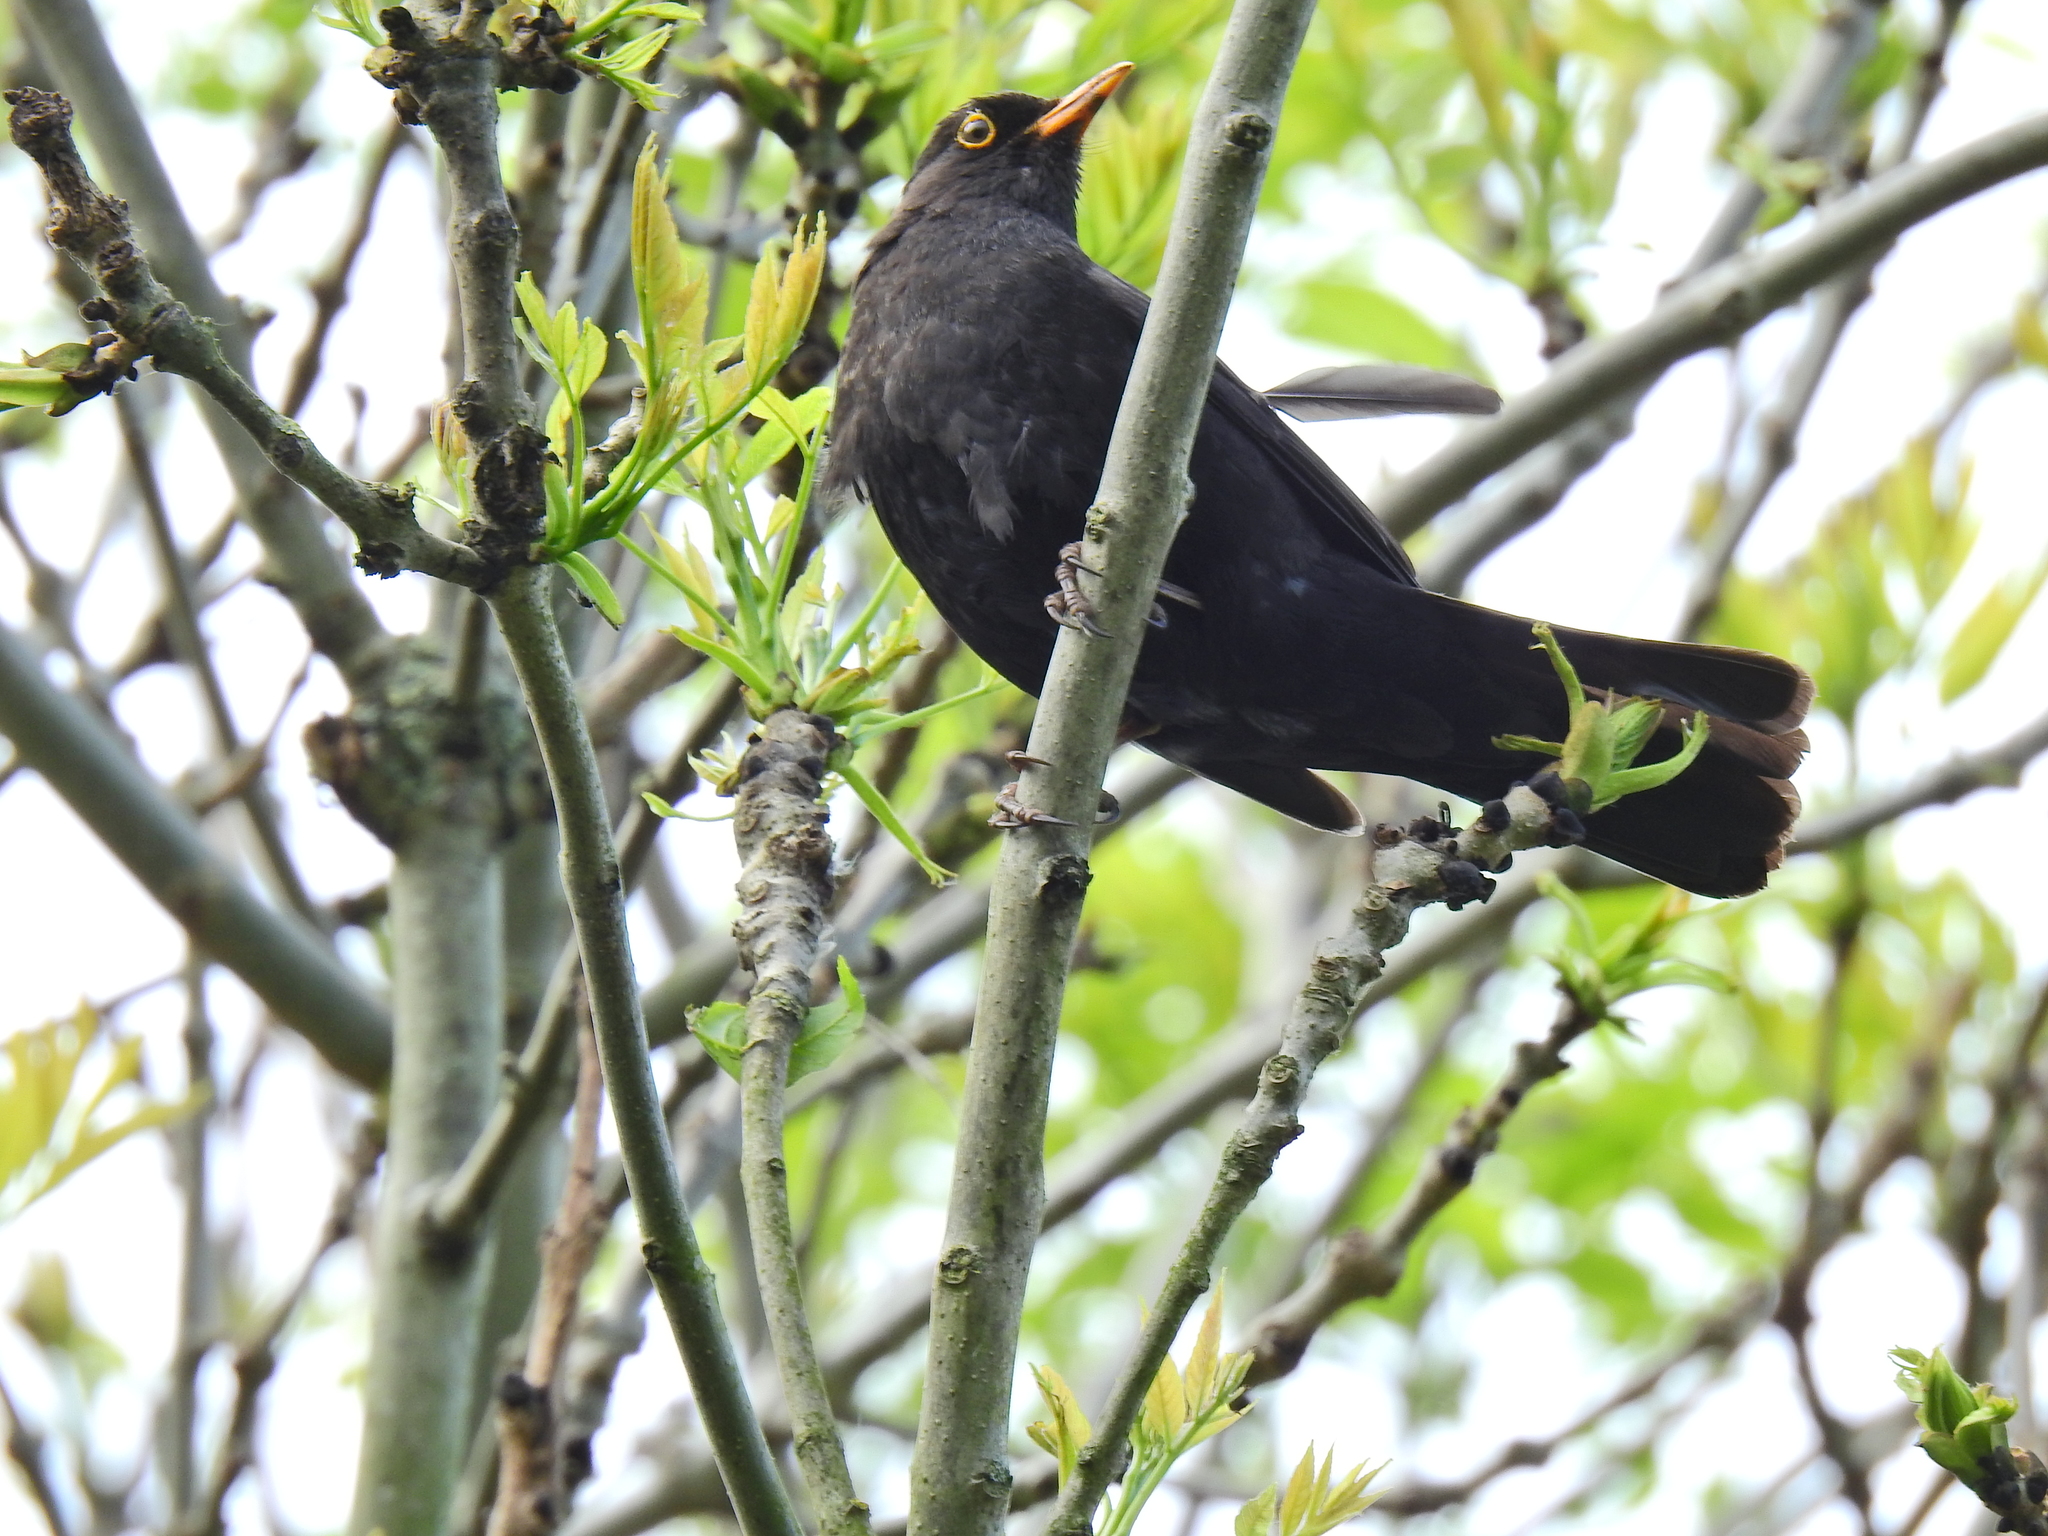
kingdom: Animalia
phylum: Chordata
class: Aves
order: Passeriformes
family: Turdidae
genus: Turdus
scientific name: Turdus merula
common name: Common blackbird
